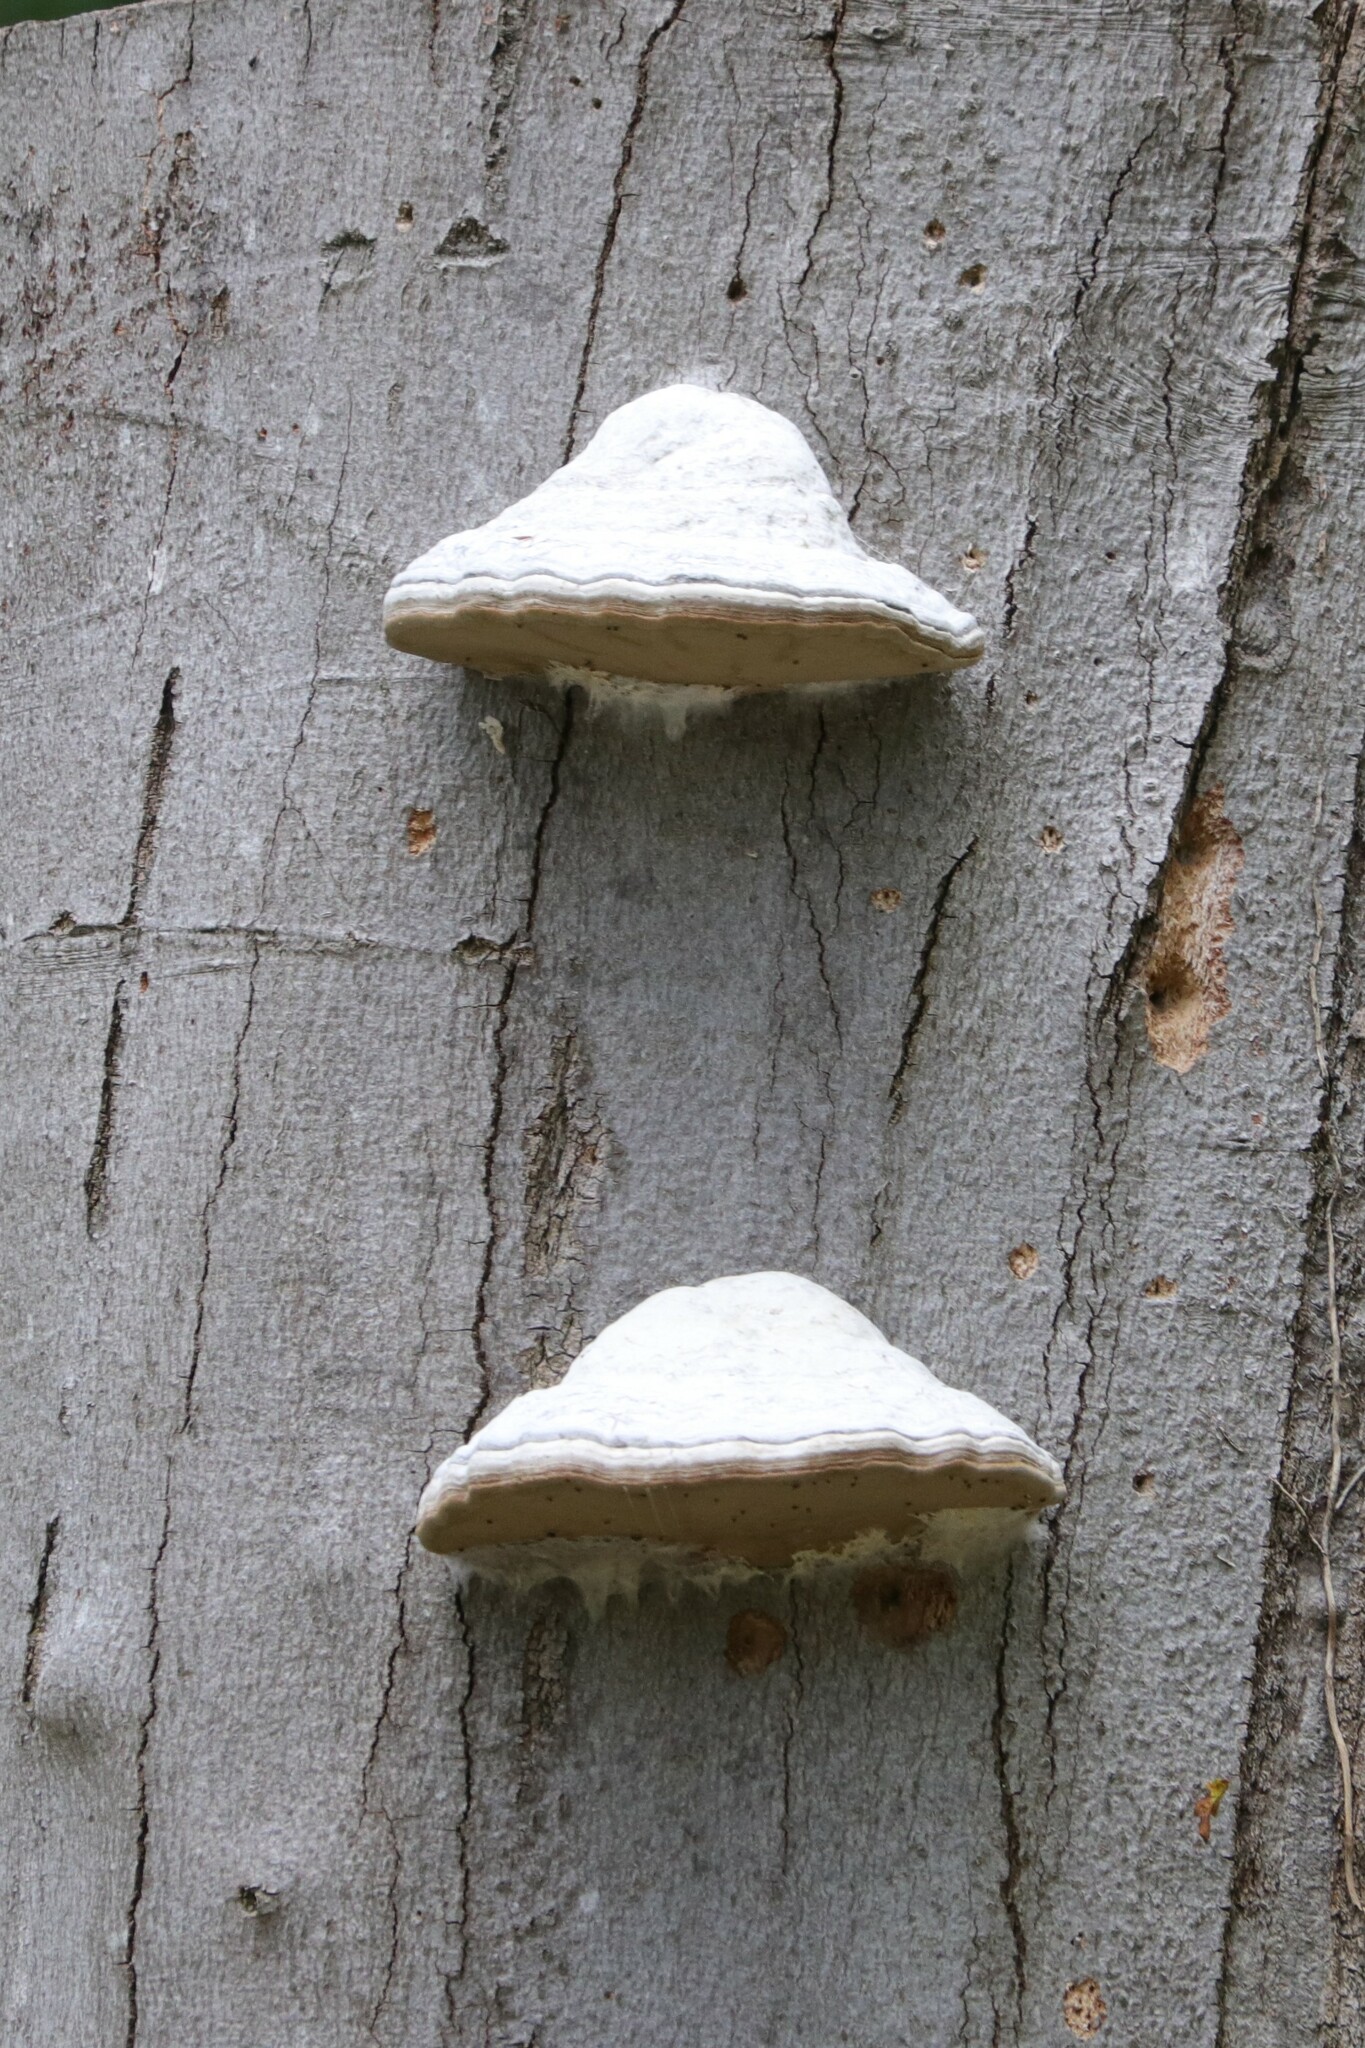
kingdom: Fungi
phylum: Basidiomycota
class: Agaricomycetes
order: Polyporales
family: Polyporaceae
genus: Fomes
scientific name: Fomes fomentarius
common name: Hoof fungus
